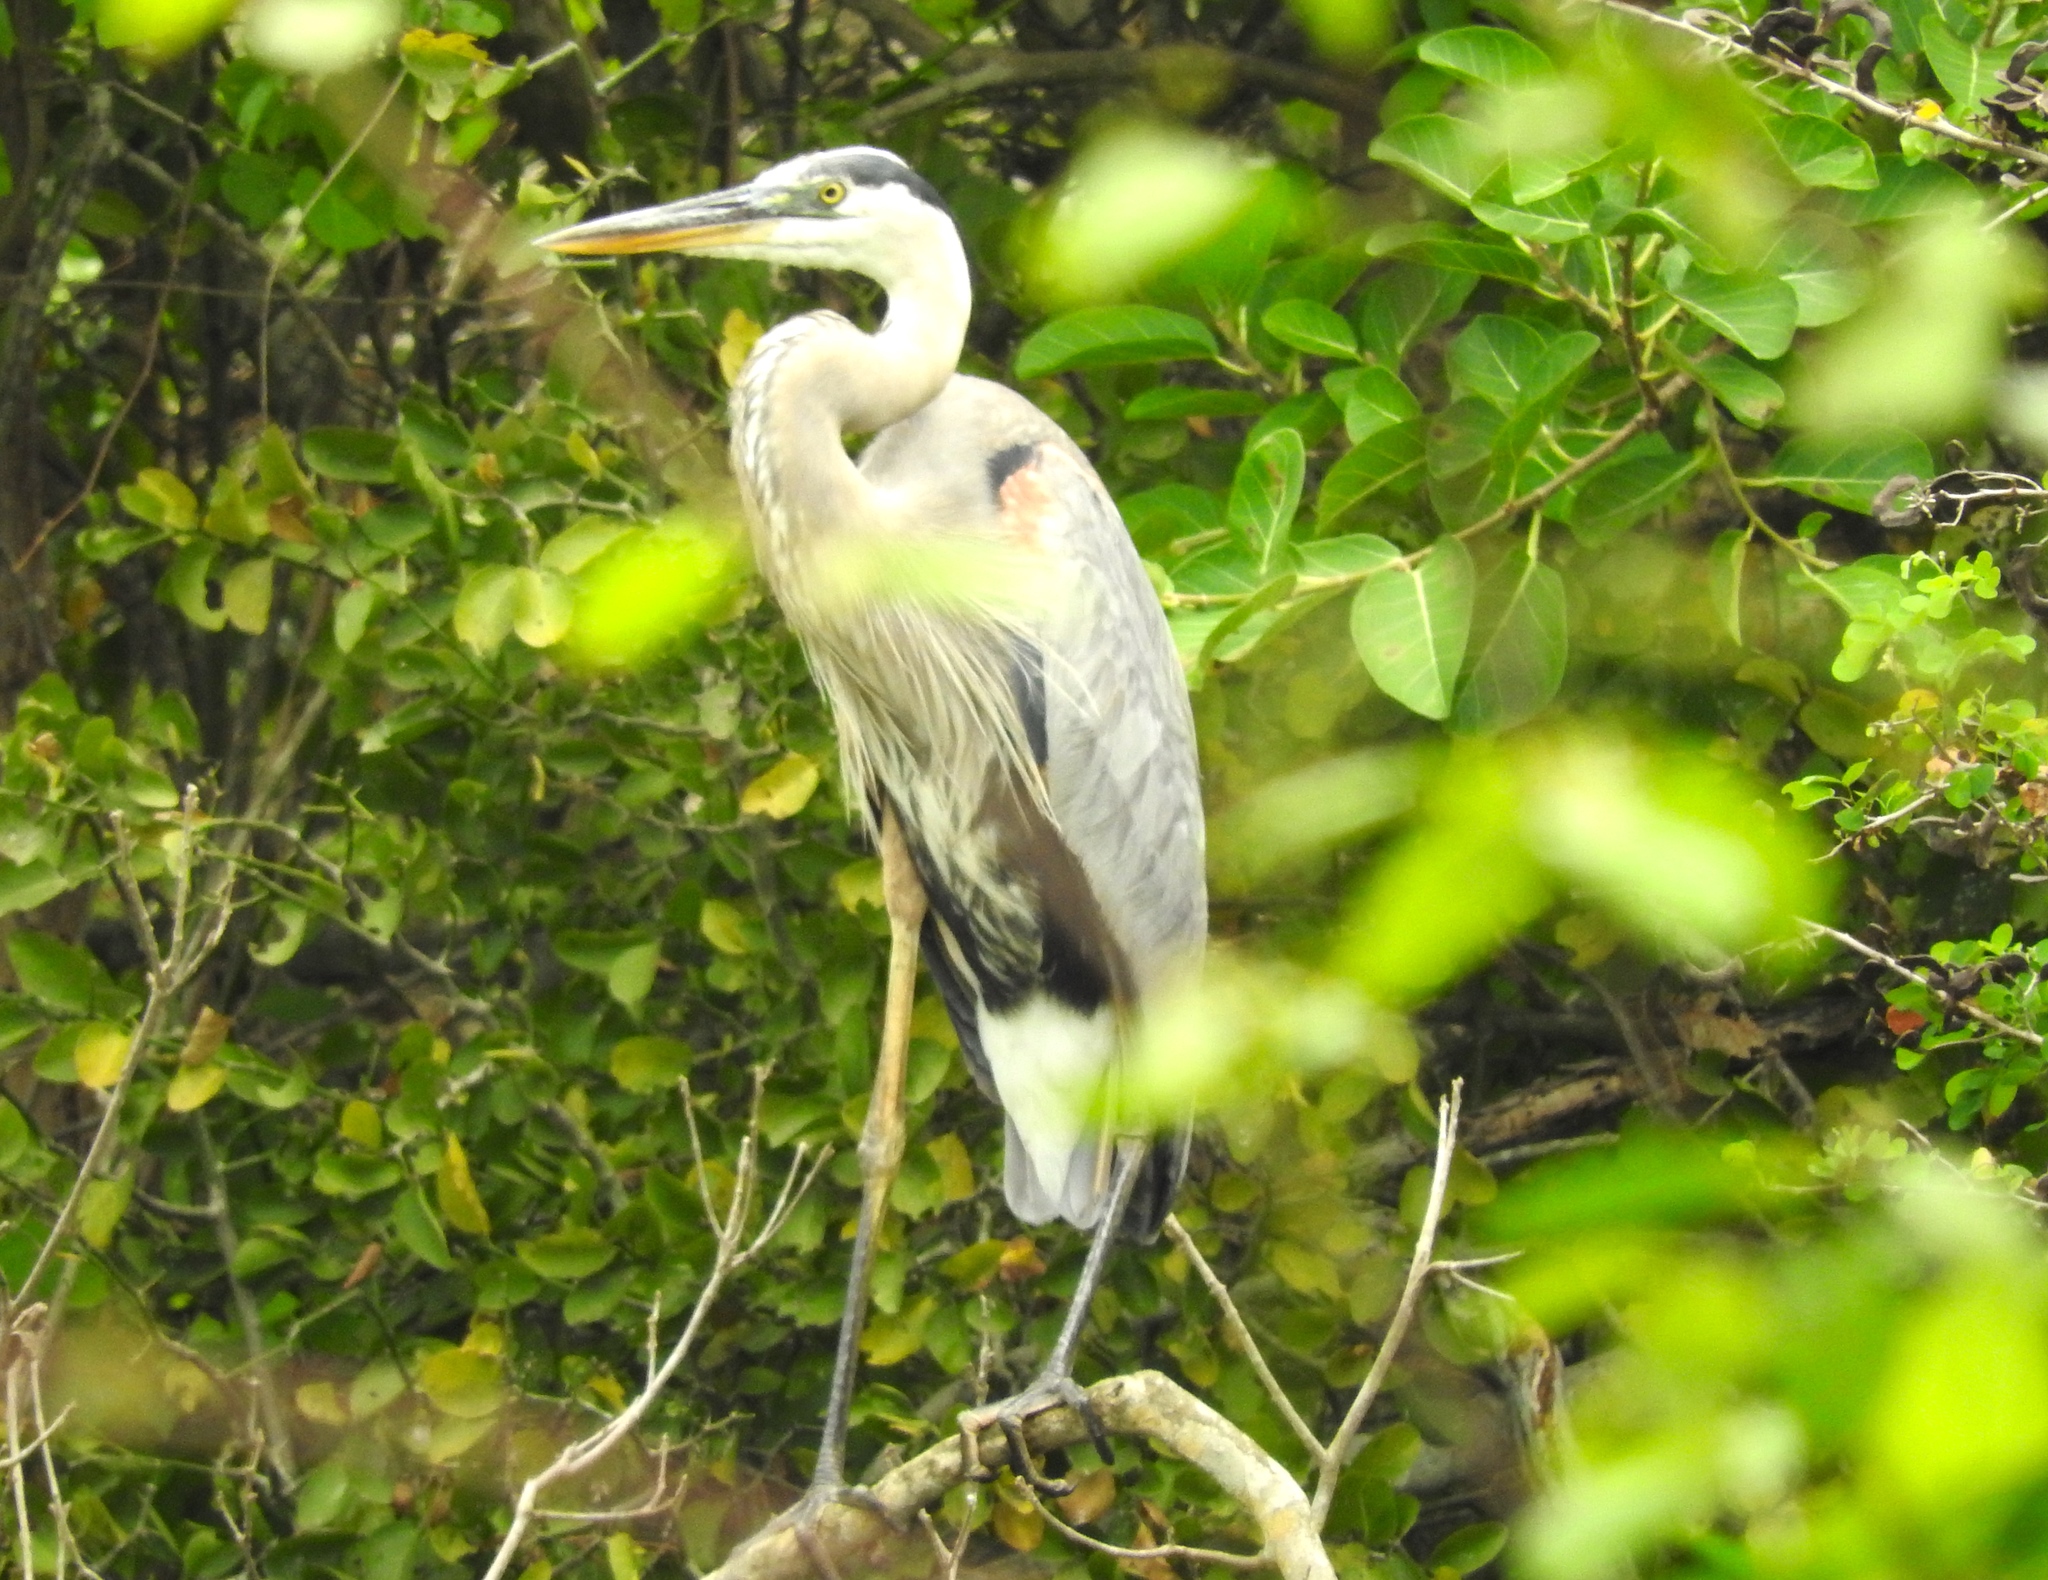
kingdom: Animalia
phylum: Chordata
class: Aves
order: Pelecaniformes
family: Ardeidae
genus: Ardea
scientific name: Ardea herodias
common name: Great blue heron
